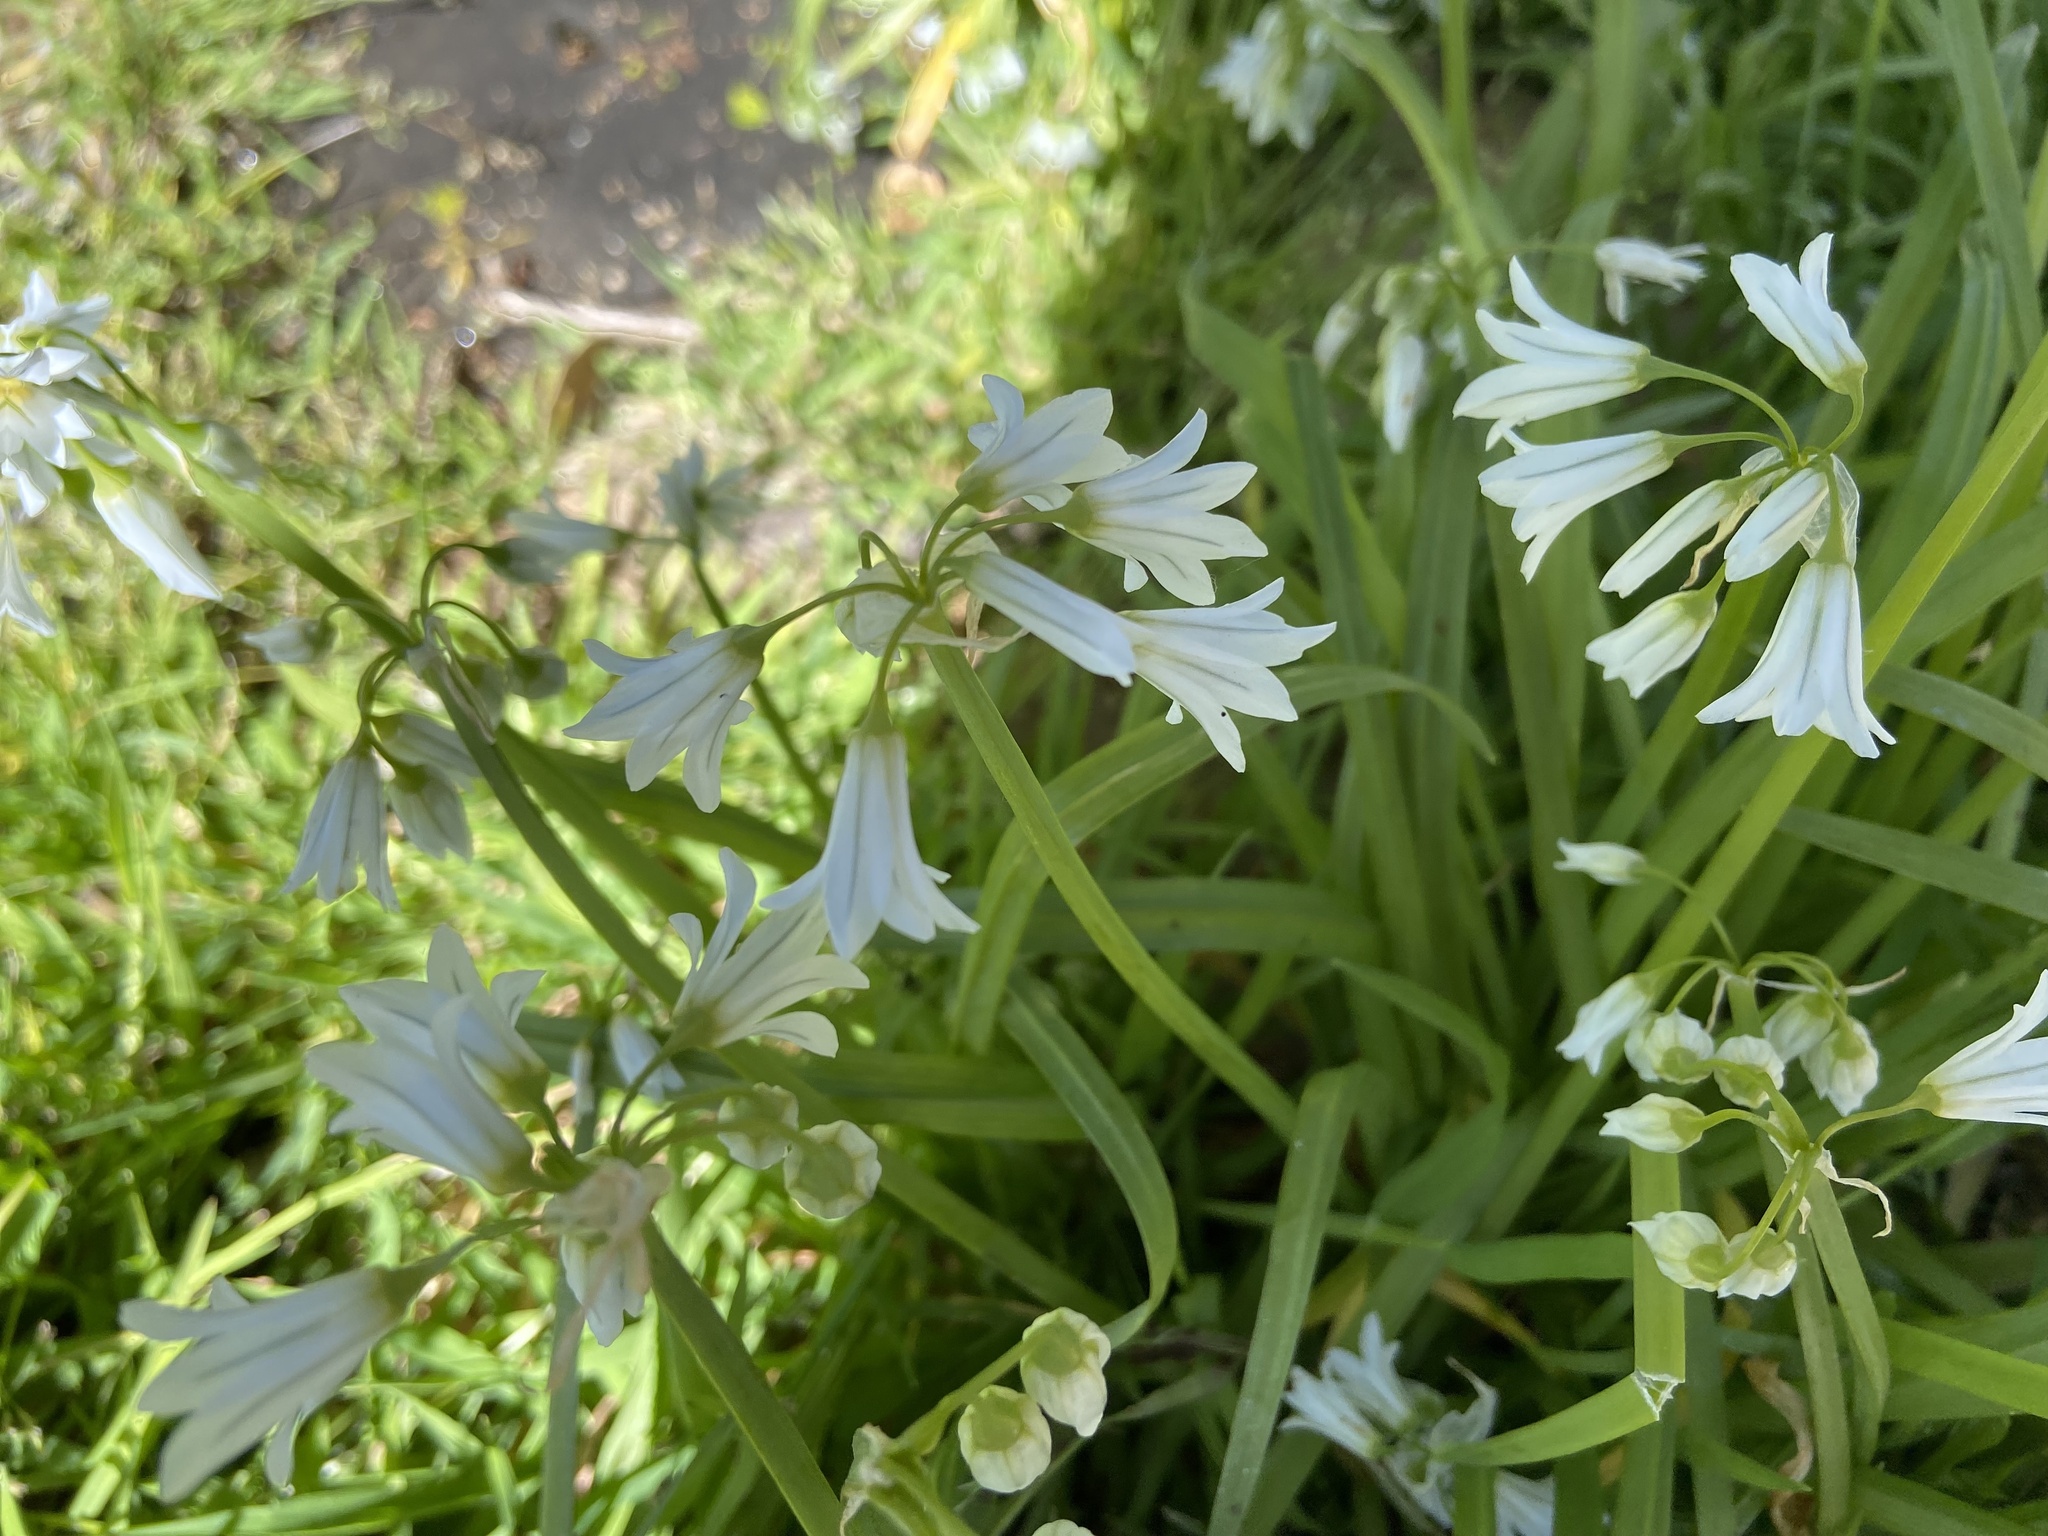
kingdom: Plantae
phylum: Tracheophyta
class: Liliopsida
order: Asparagales
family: Amaryllidaceae
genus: Allium
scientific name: Allium triquetrum
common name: Three-cornered garlic
